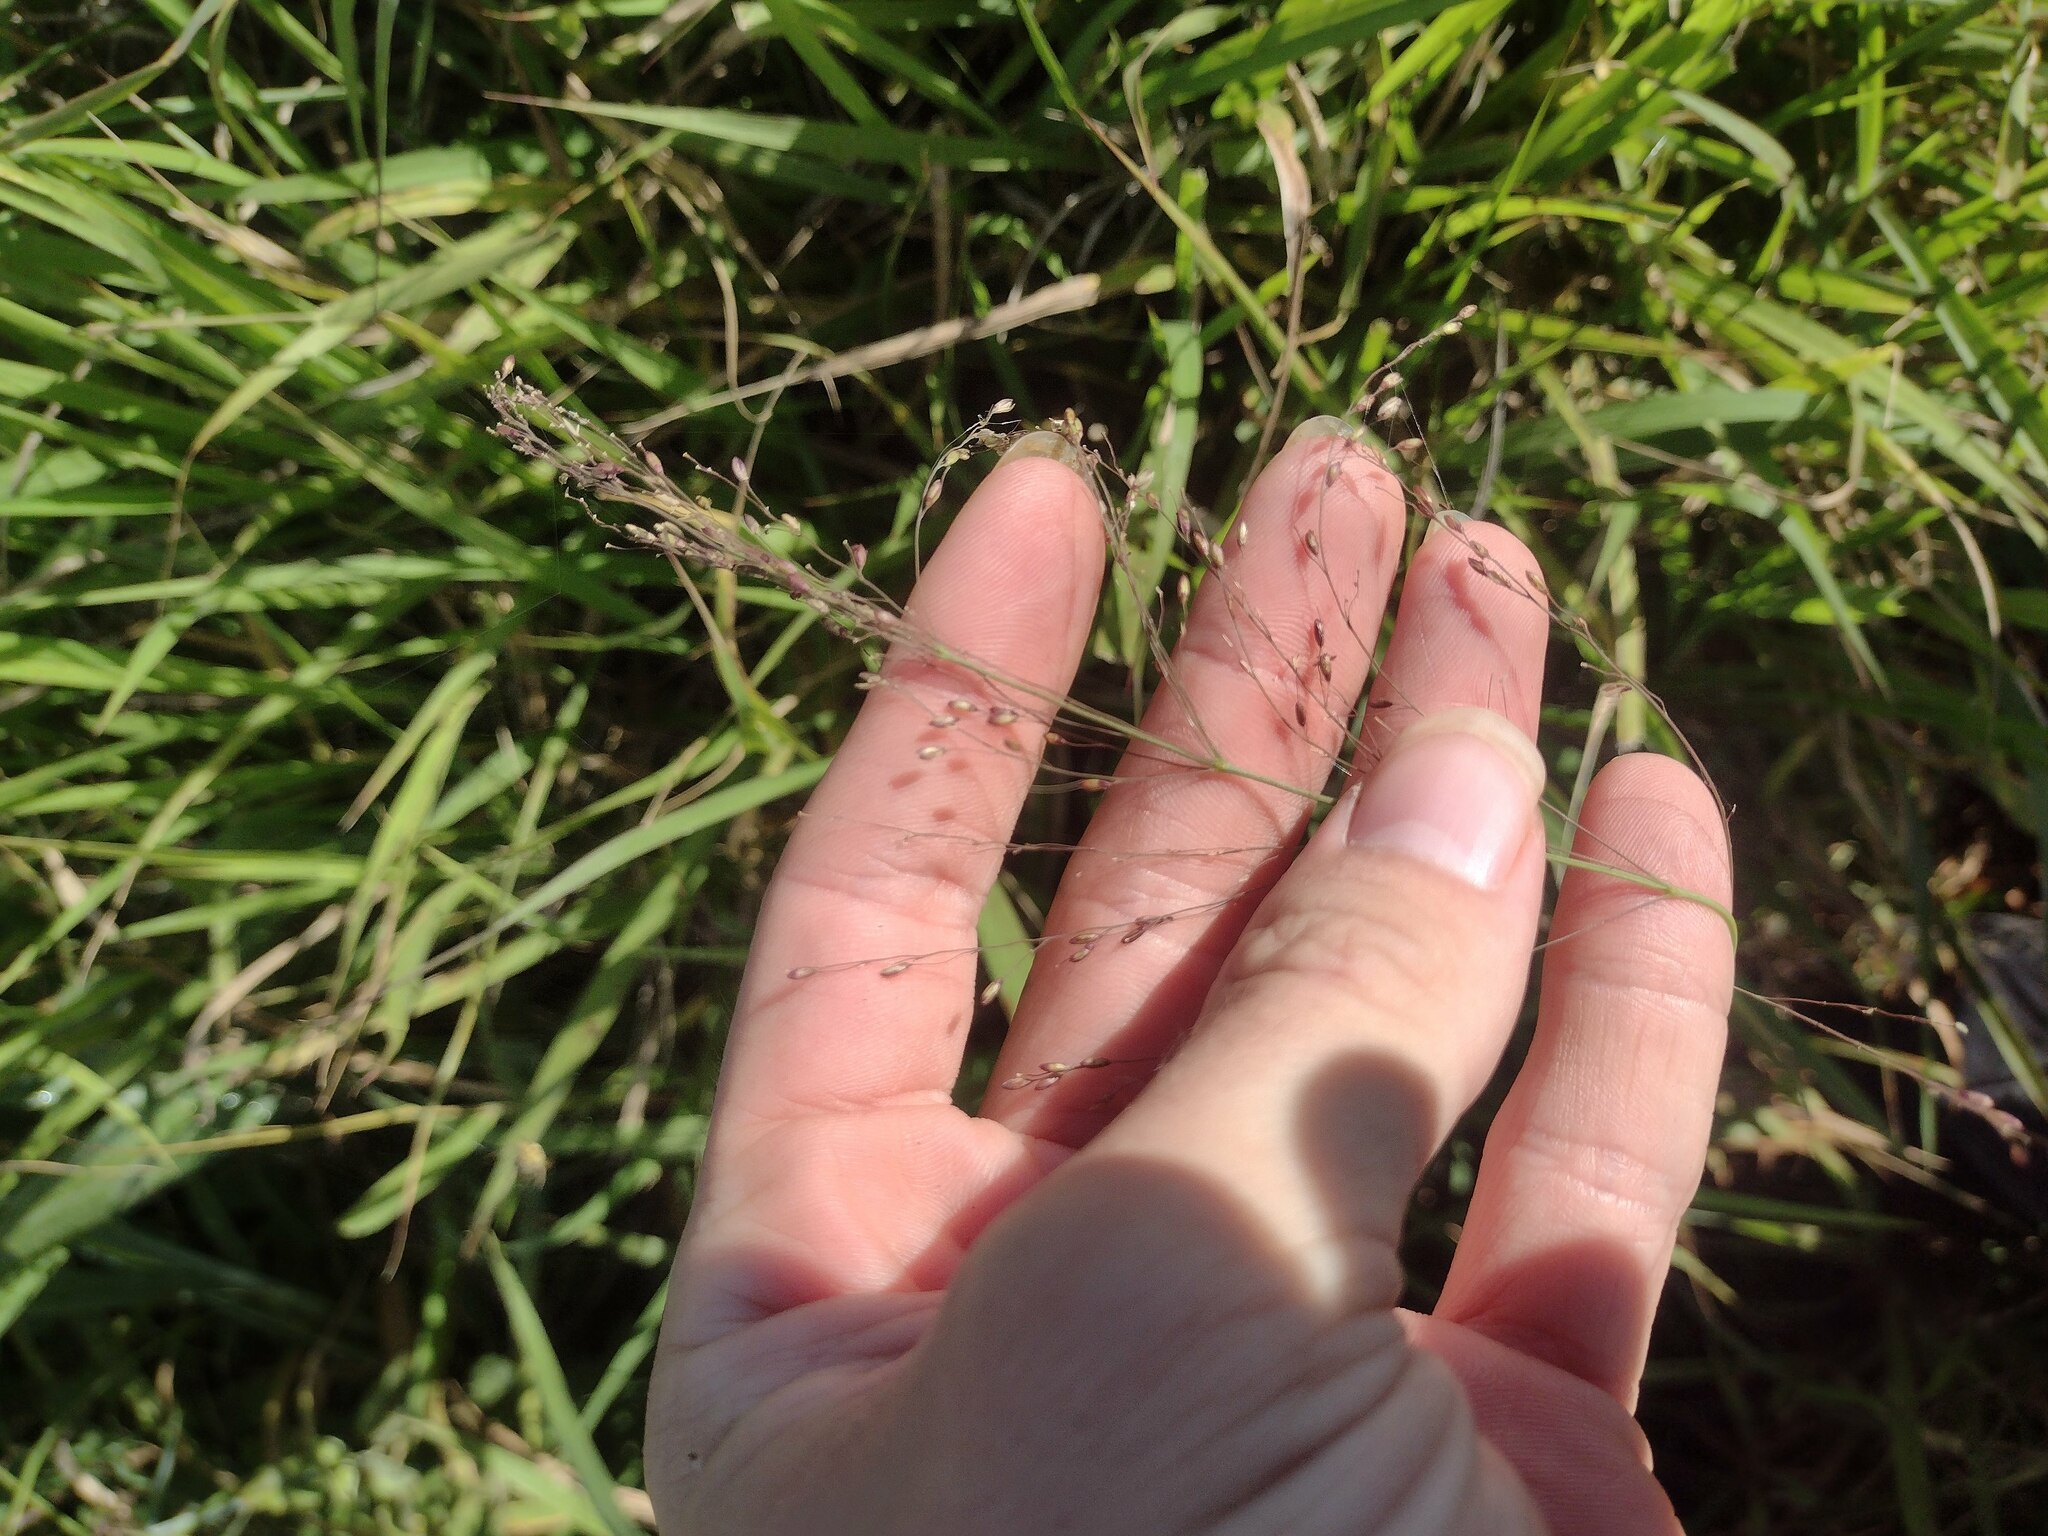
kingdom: Plantae
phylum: Tracheophyta
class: Liliopsida
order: Poales
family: Poaceae
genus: Megathyrsus
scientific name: Megathyrsus maximus
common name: Guineagrass
